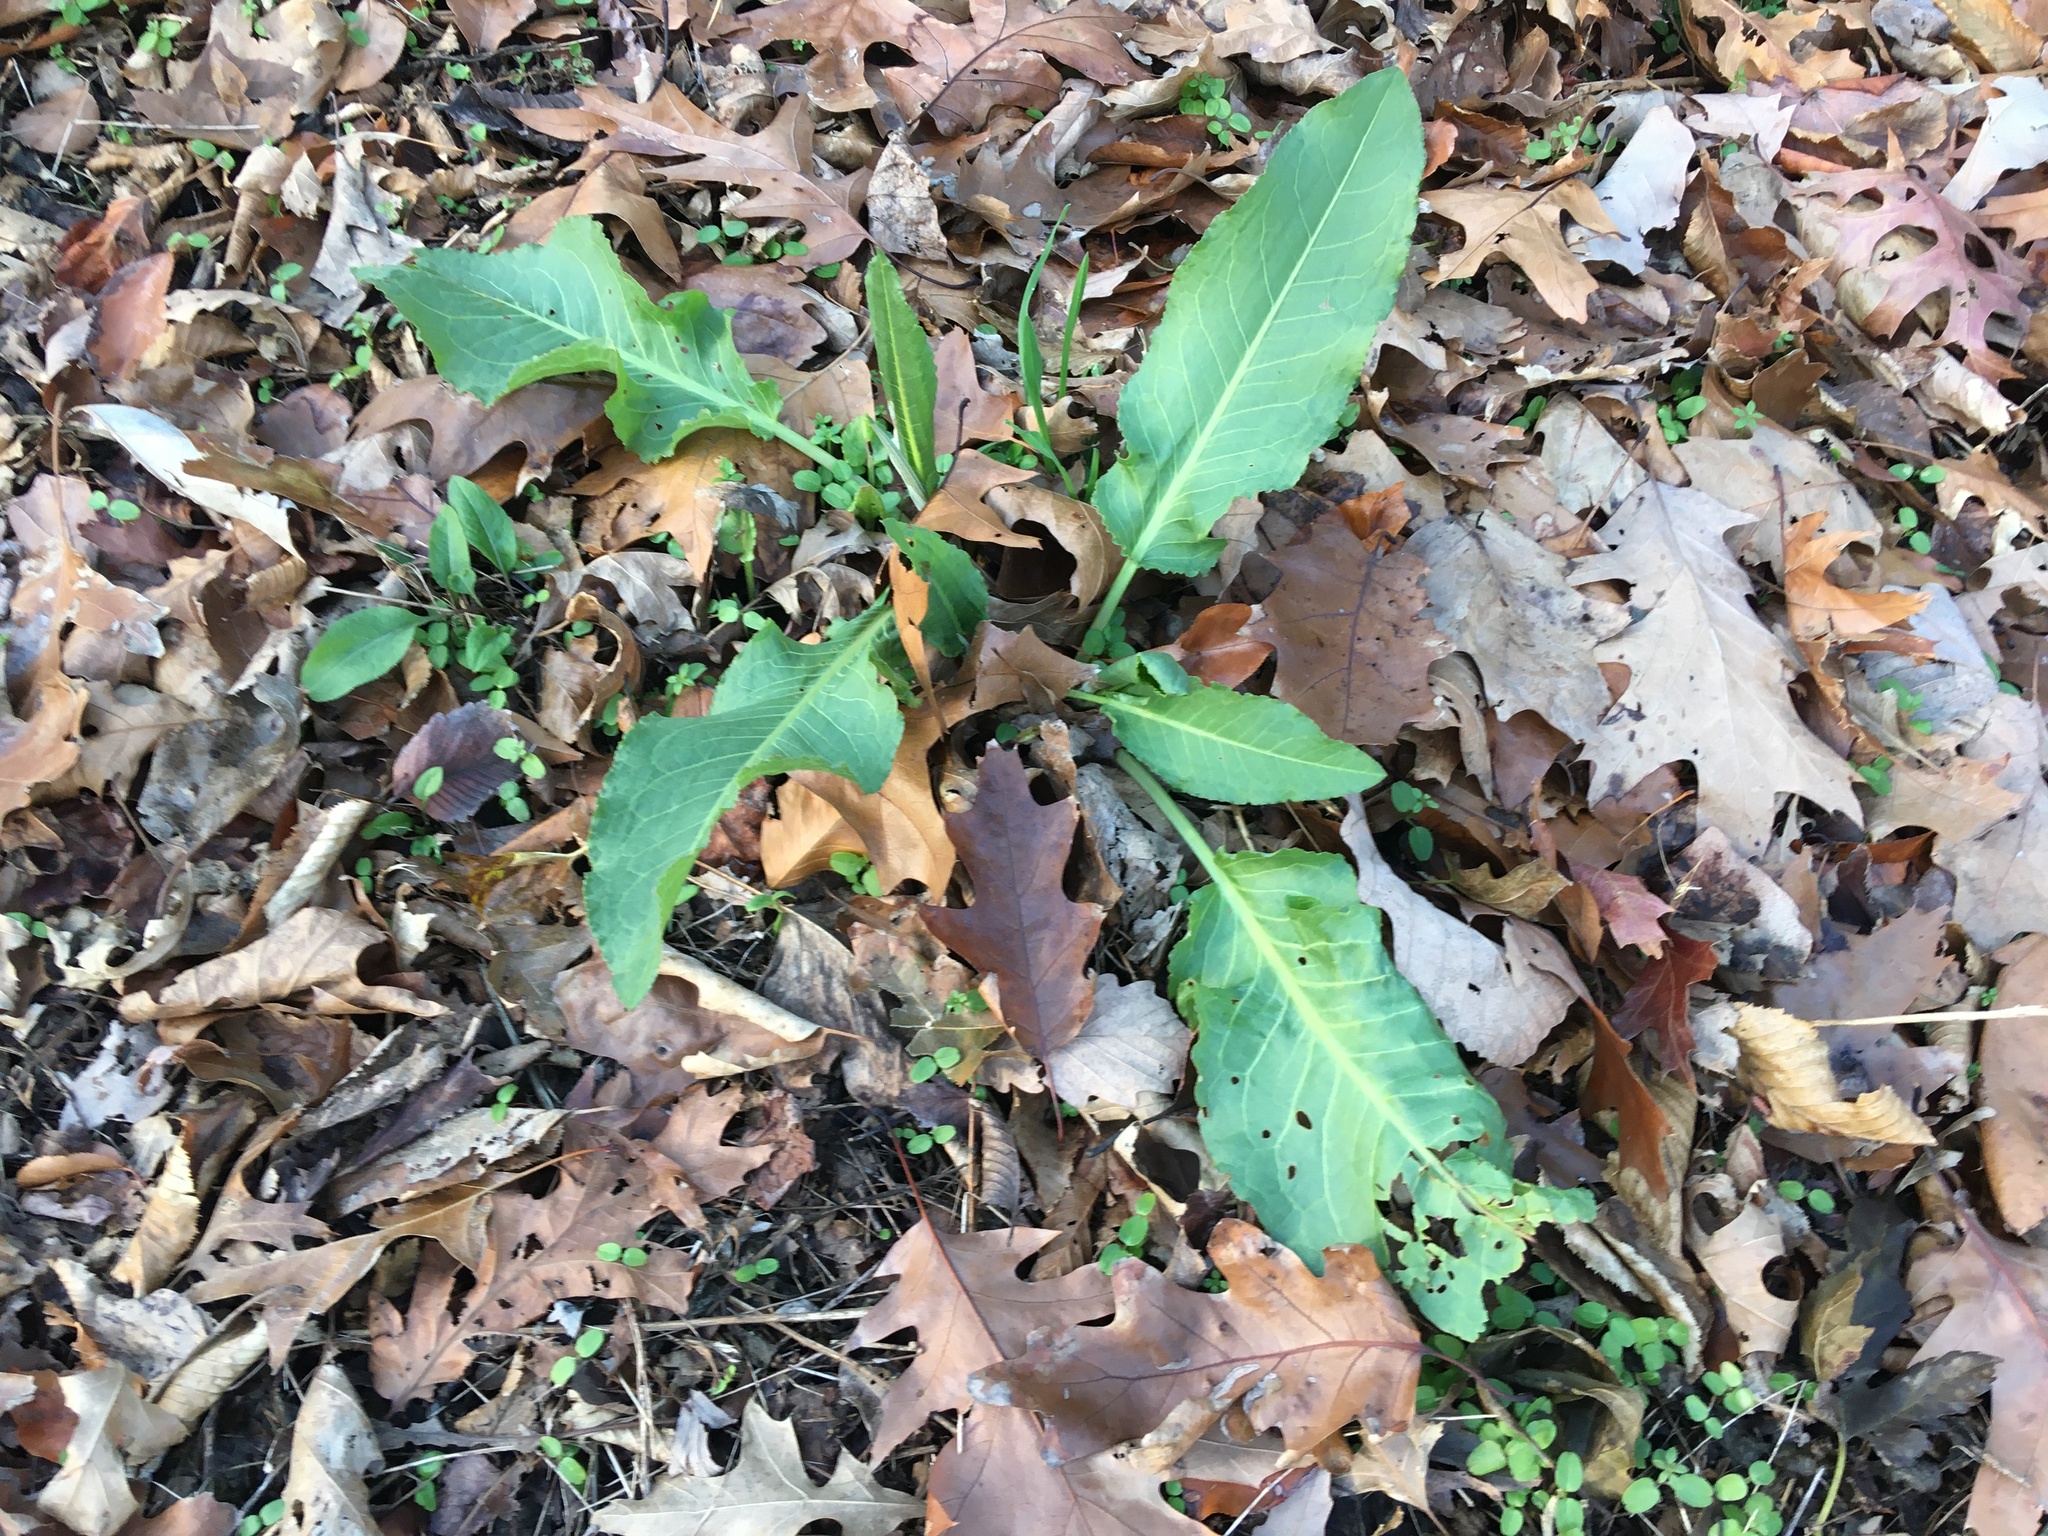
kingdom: Plantae
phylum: Tracheophyta
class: Magnoliopsida
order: Caryophyllales
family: Polygonaceae
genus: Rumex
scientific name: Rumex obtusifolius
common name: Bitter dock
